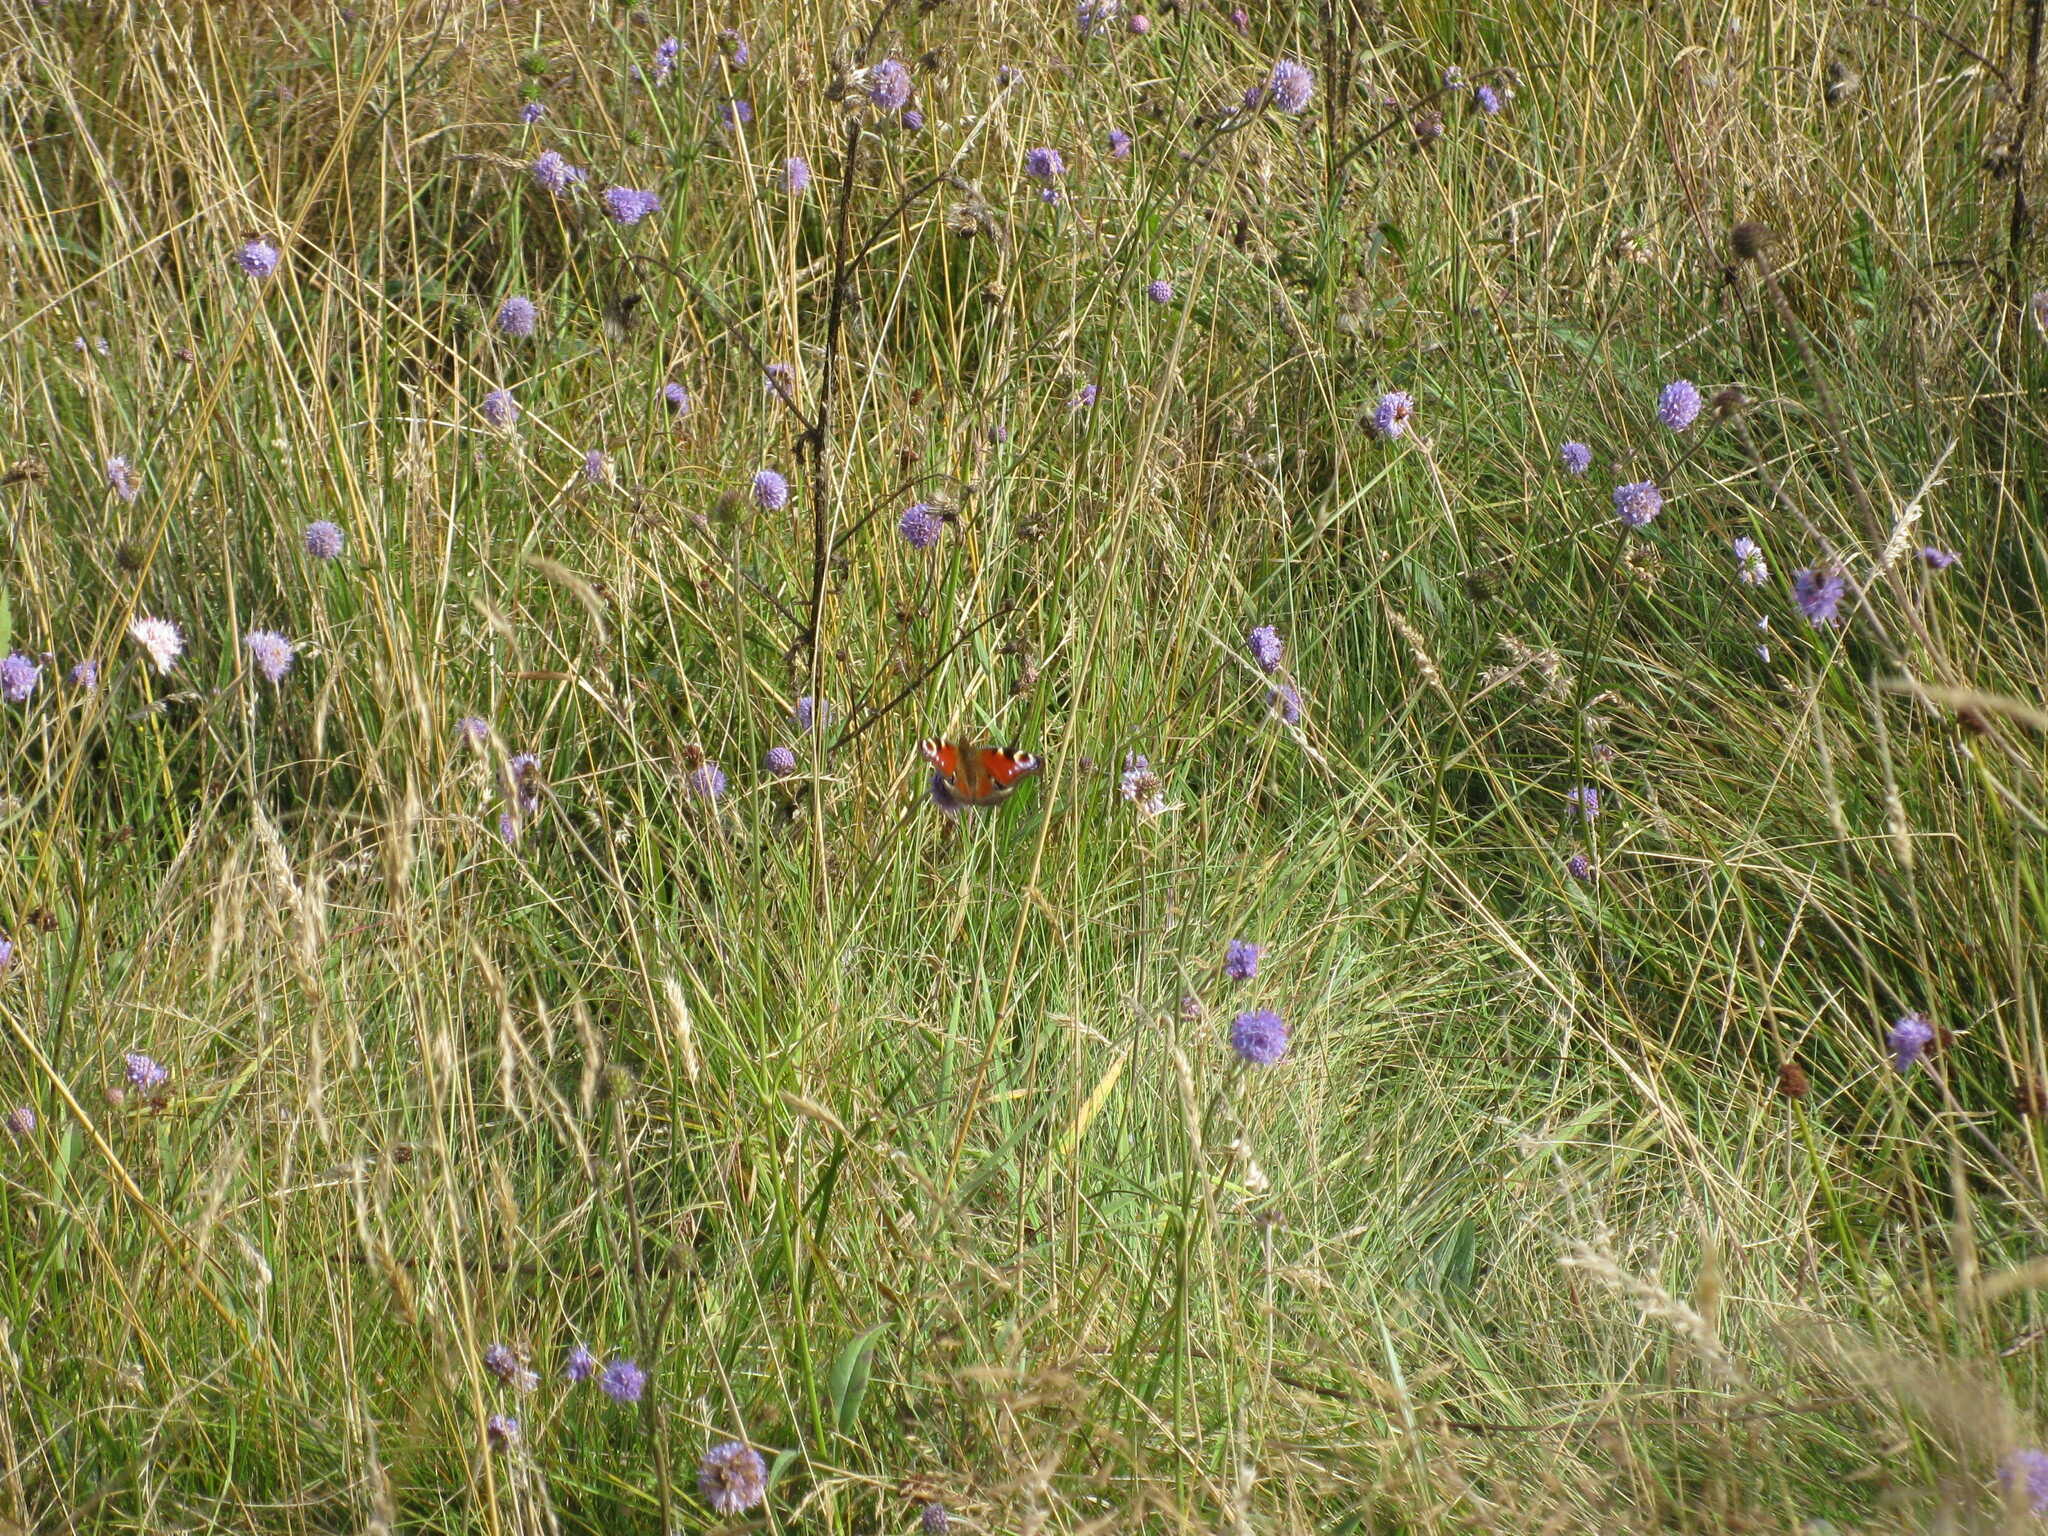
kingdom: Animalia
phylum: Arthropoda
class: Insecta
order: Lepidoptera
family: Nymphalidae
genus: Aglais
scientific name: Aglais io
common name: Peacock
